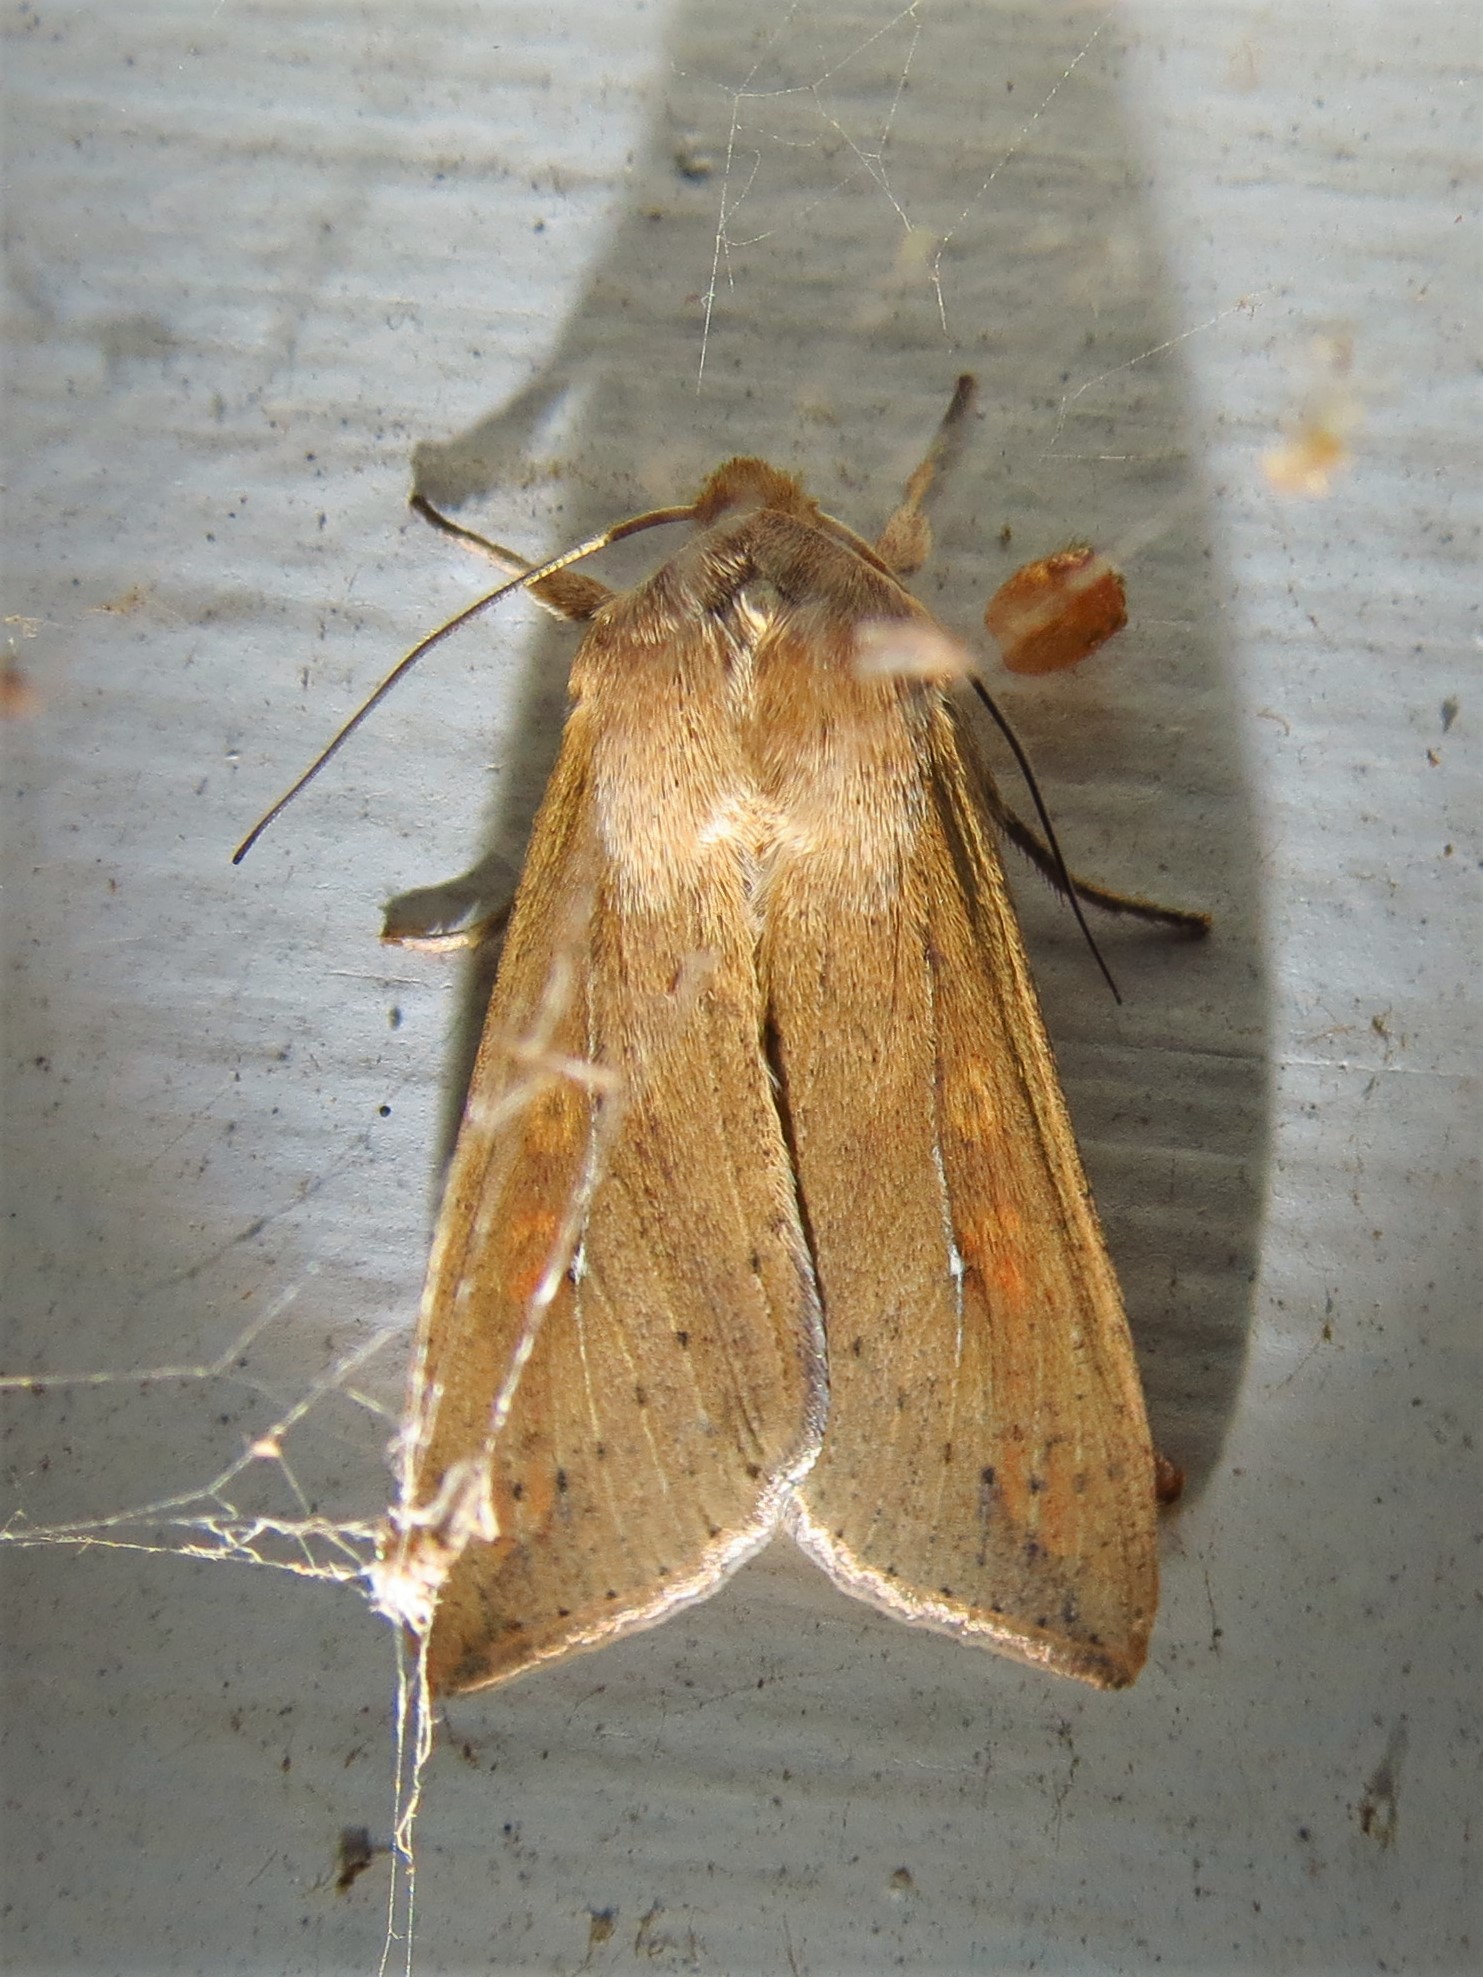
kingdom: Animalia
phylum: Arthropoda
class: Insecta
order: Lepidoptera
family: Noctuidae
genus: Mythimna
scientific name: Mythimna unipuncta
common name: White-speck
